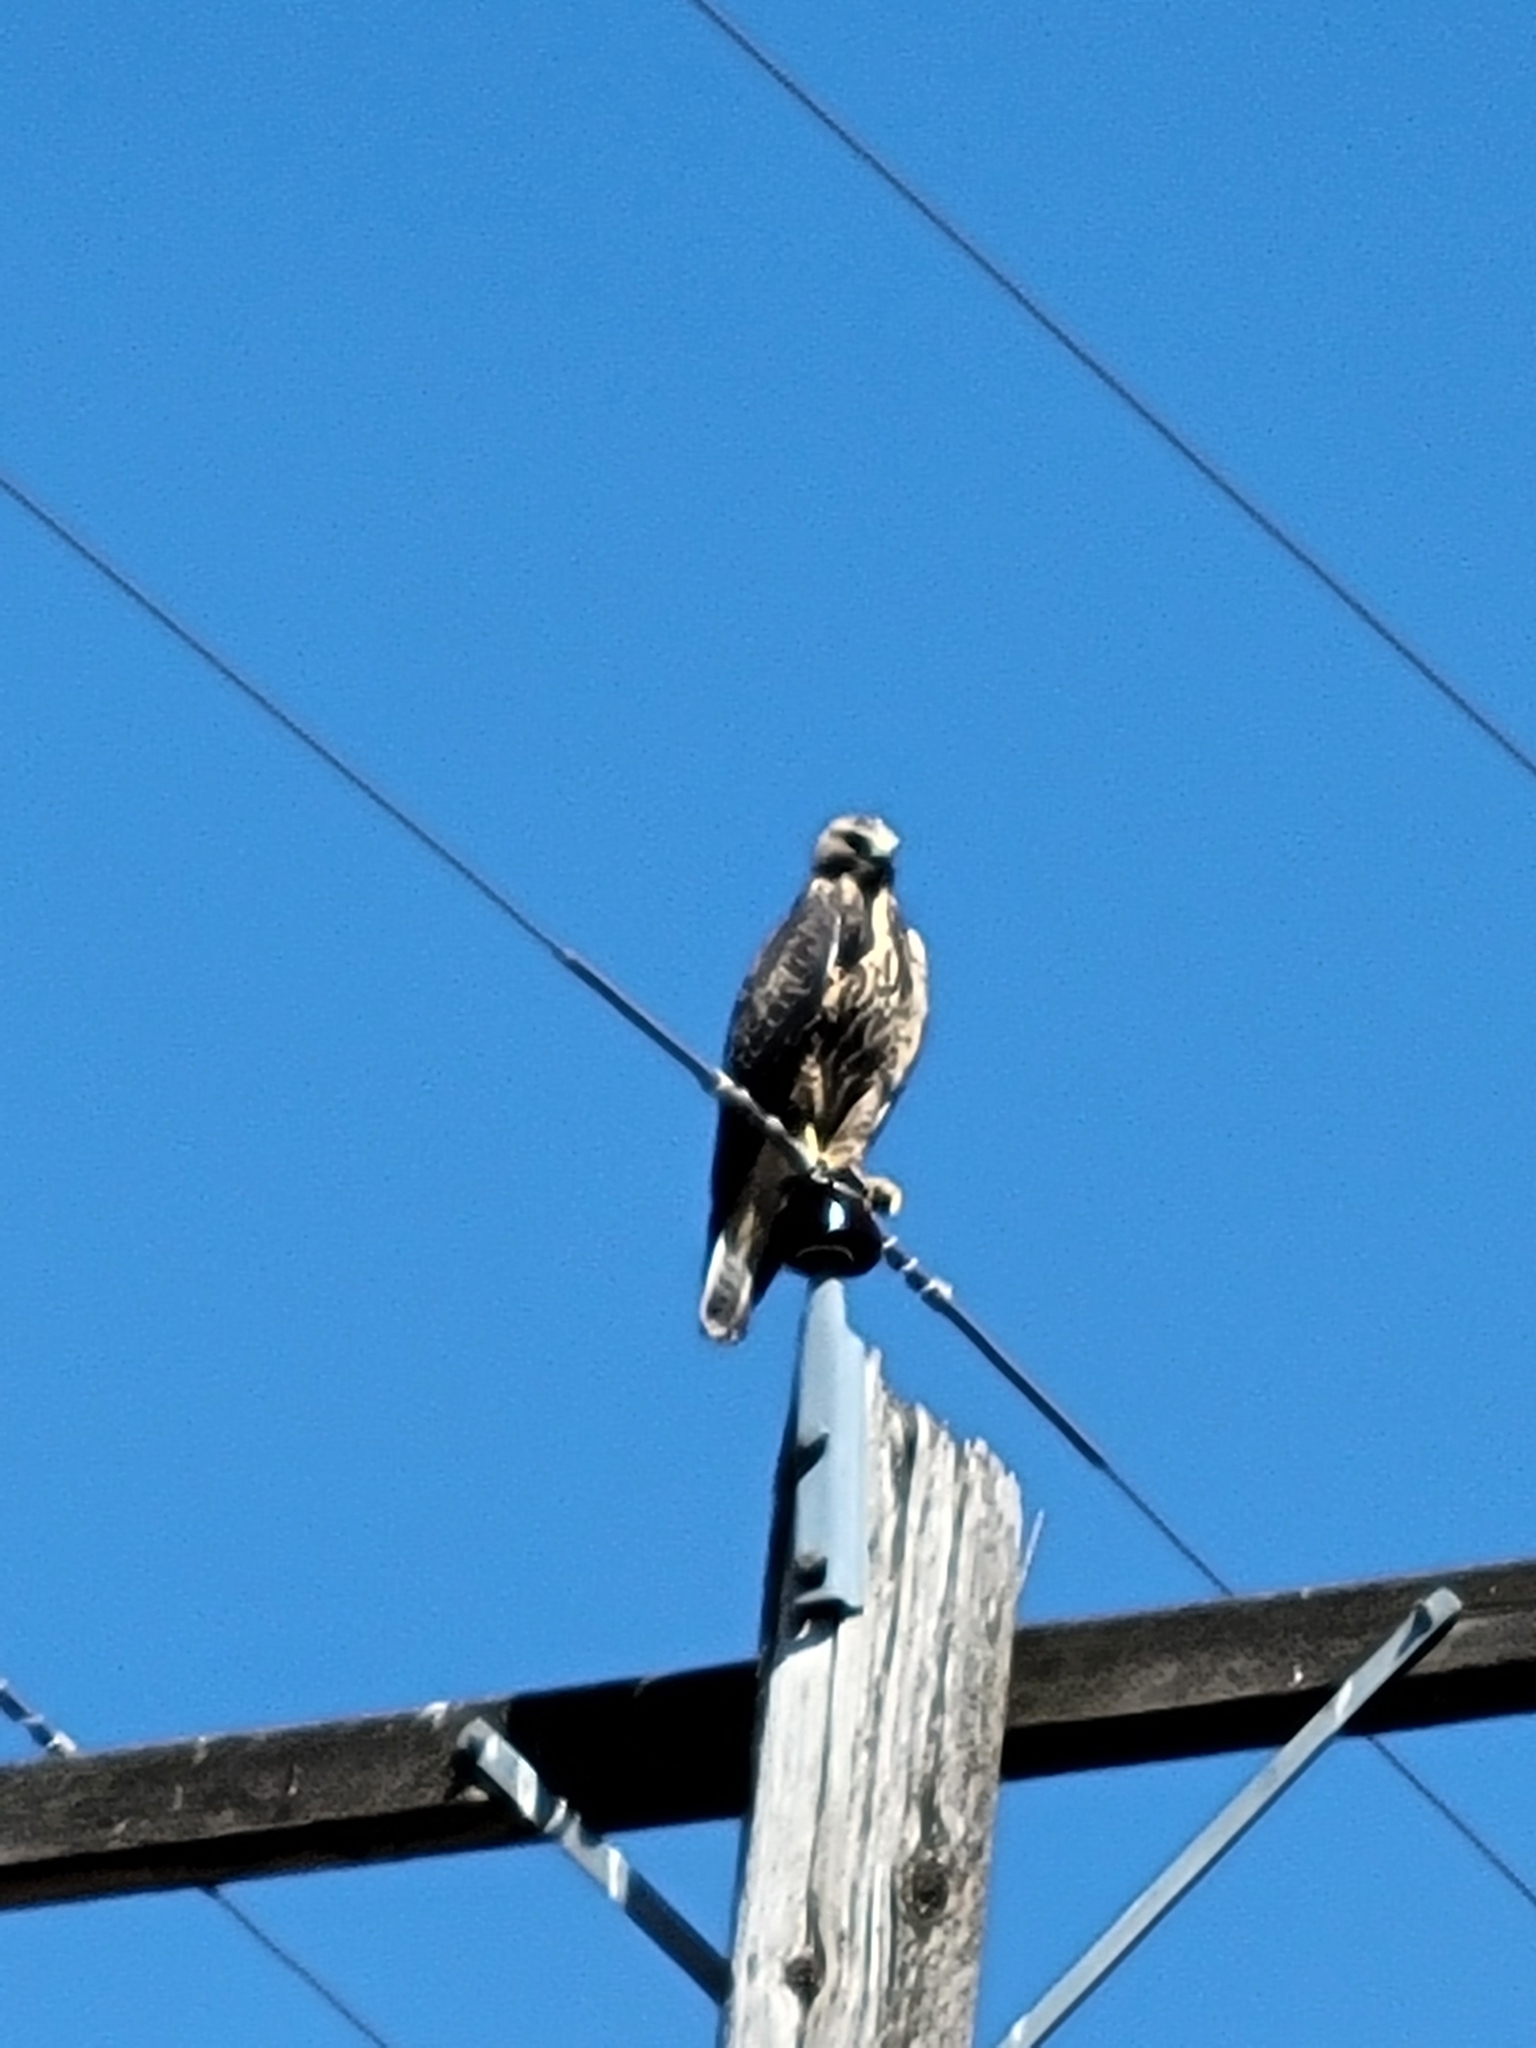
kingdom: Animalia
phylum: Chordata
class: Aves
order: Accipitriformes
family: Accipitridae
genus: Buteo
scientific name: Buteo swainsoni
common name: Swainson's hawk
